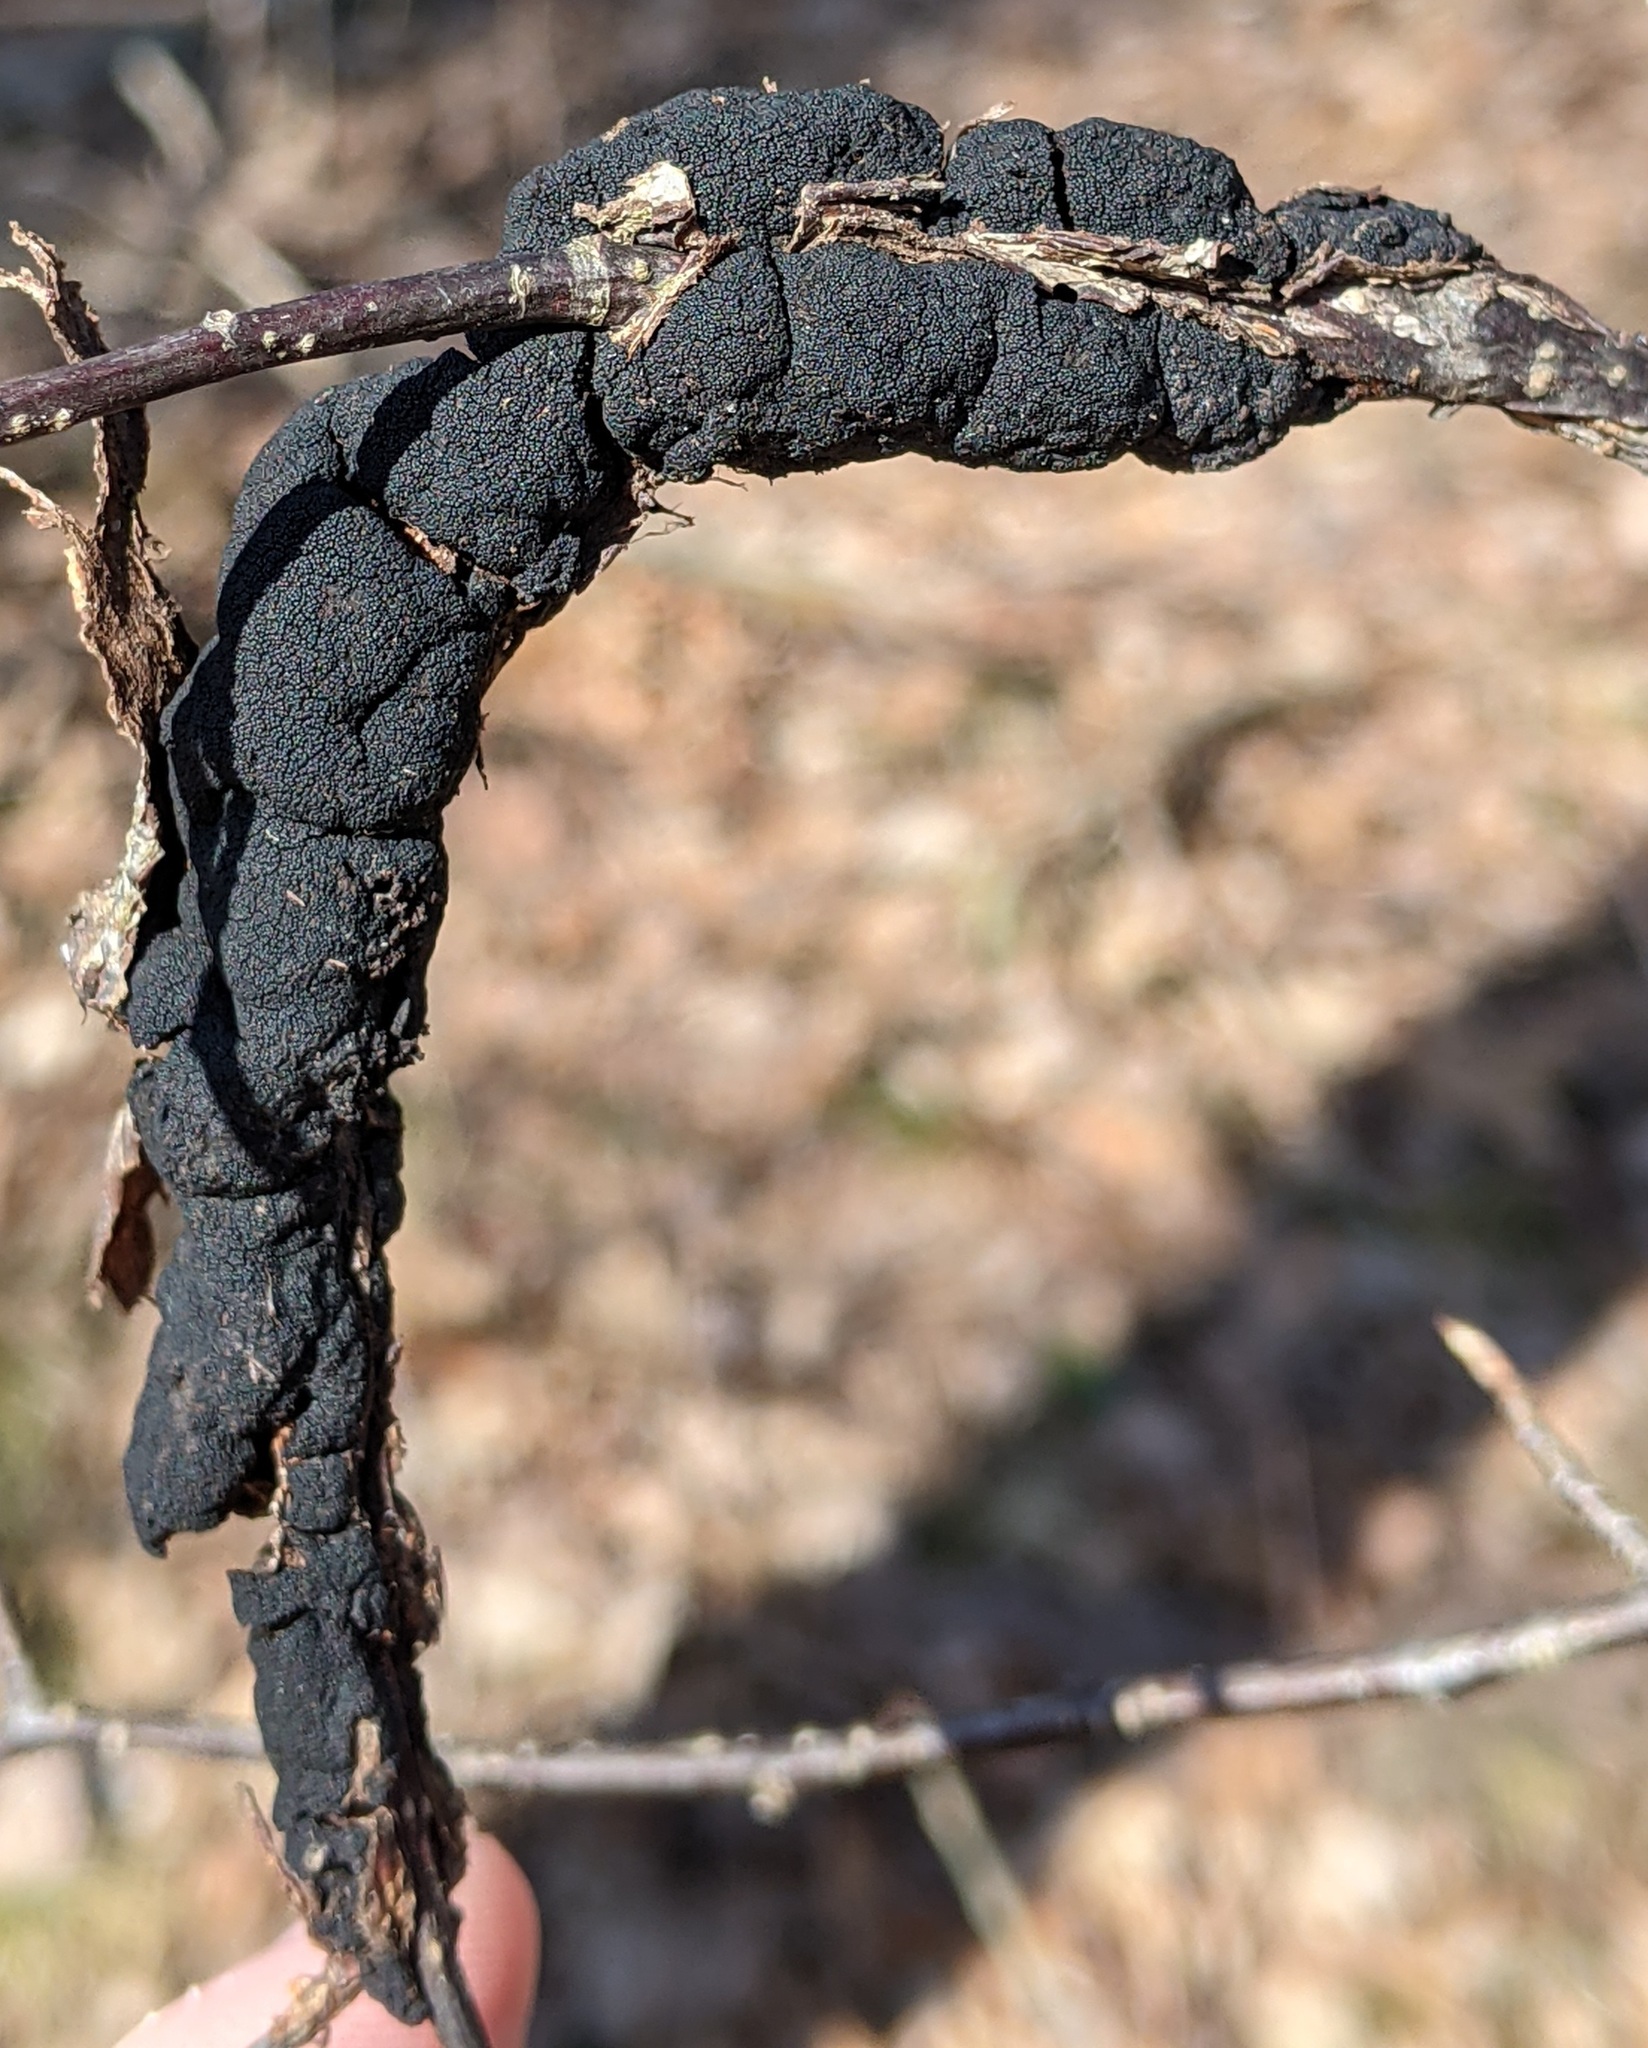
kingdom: Fungi
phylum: Ascomycota
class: Dothideomycetes
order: Venturiales
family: Venturiaceae
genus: Apiosporina
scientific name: Apiosporina morbosa
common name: Black knot
